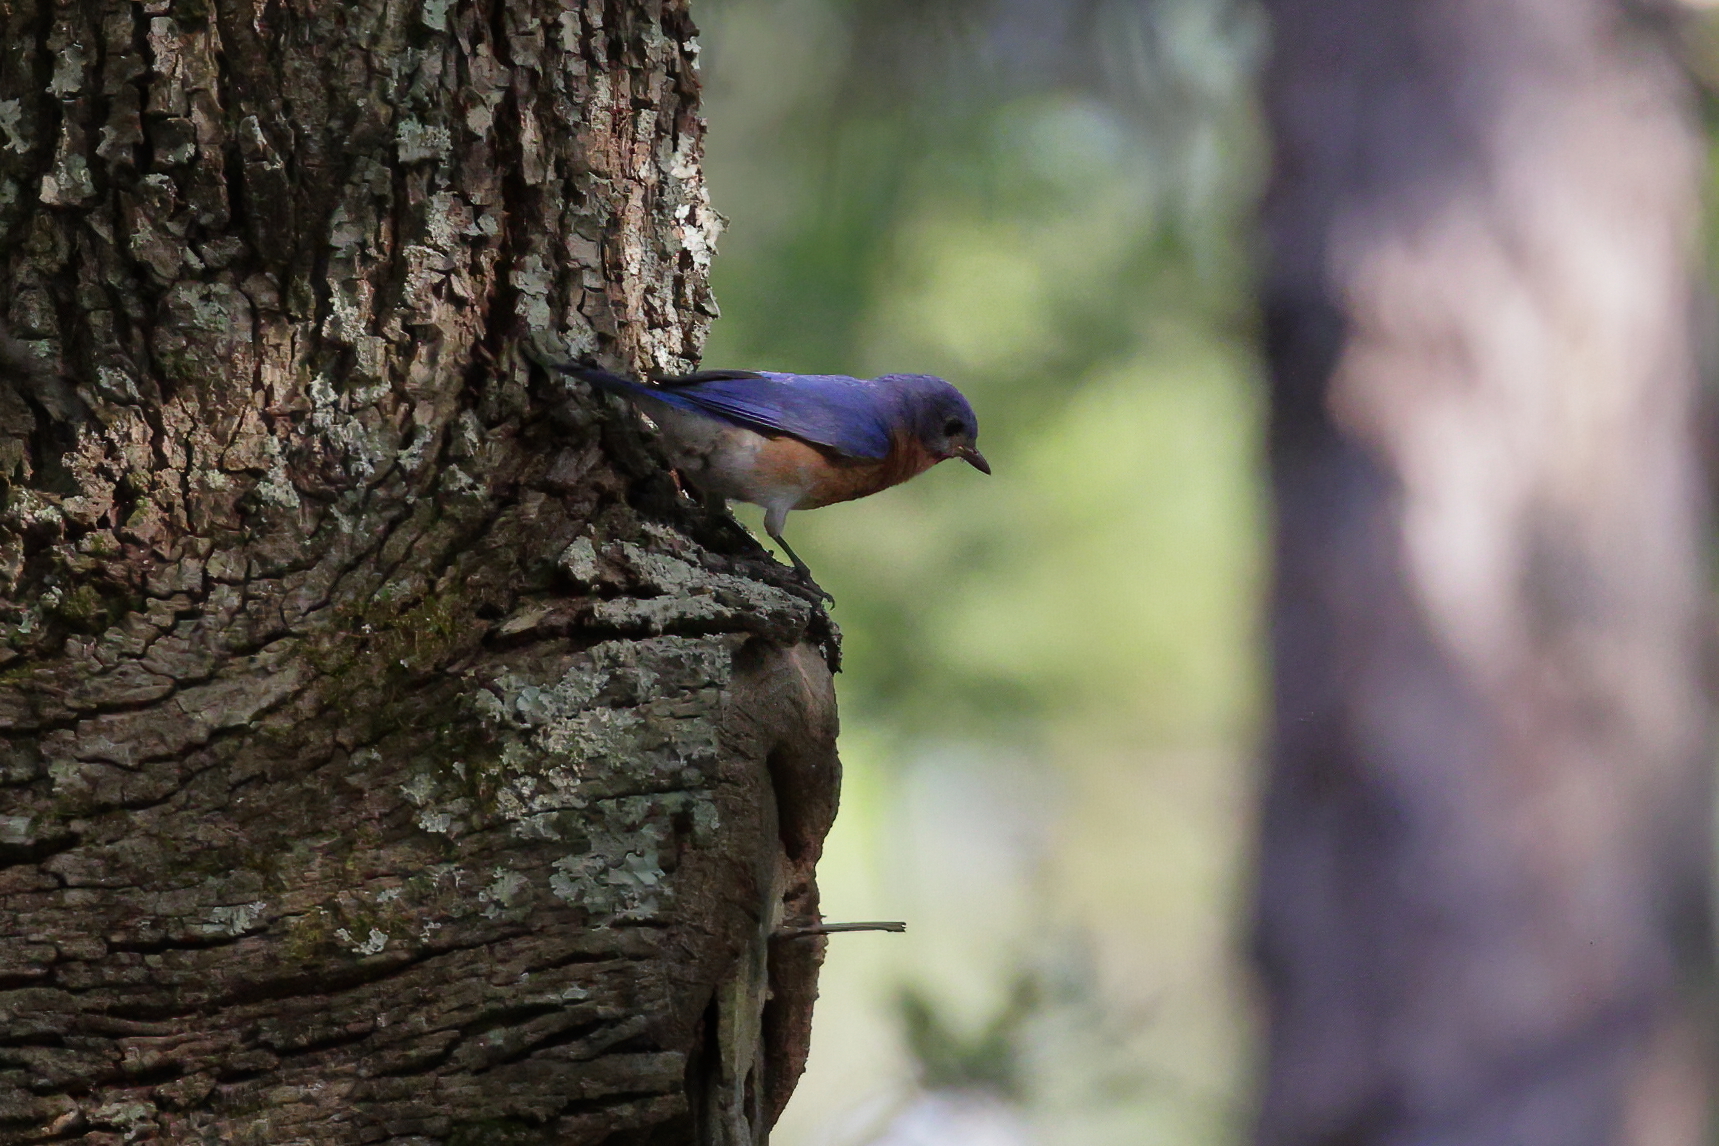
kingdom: Animalia
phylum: Chordata
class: Aves
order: Passeriformes
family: Turdidae
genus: Sialia
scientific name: Sialia sialis
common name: Eastern bluebird
